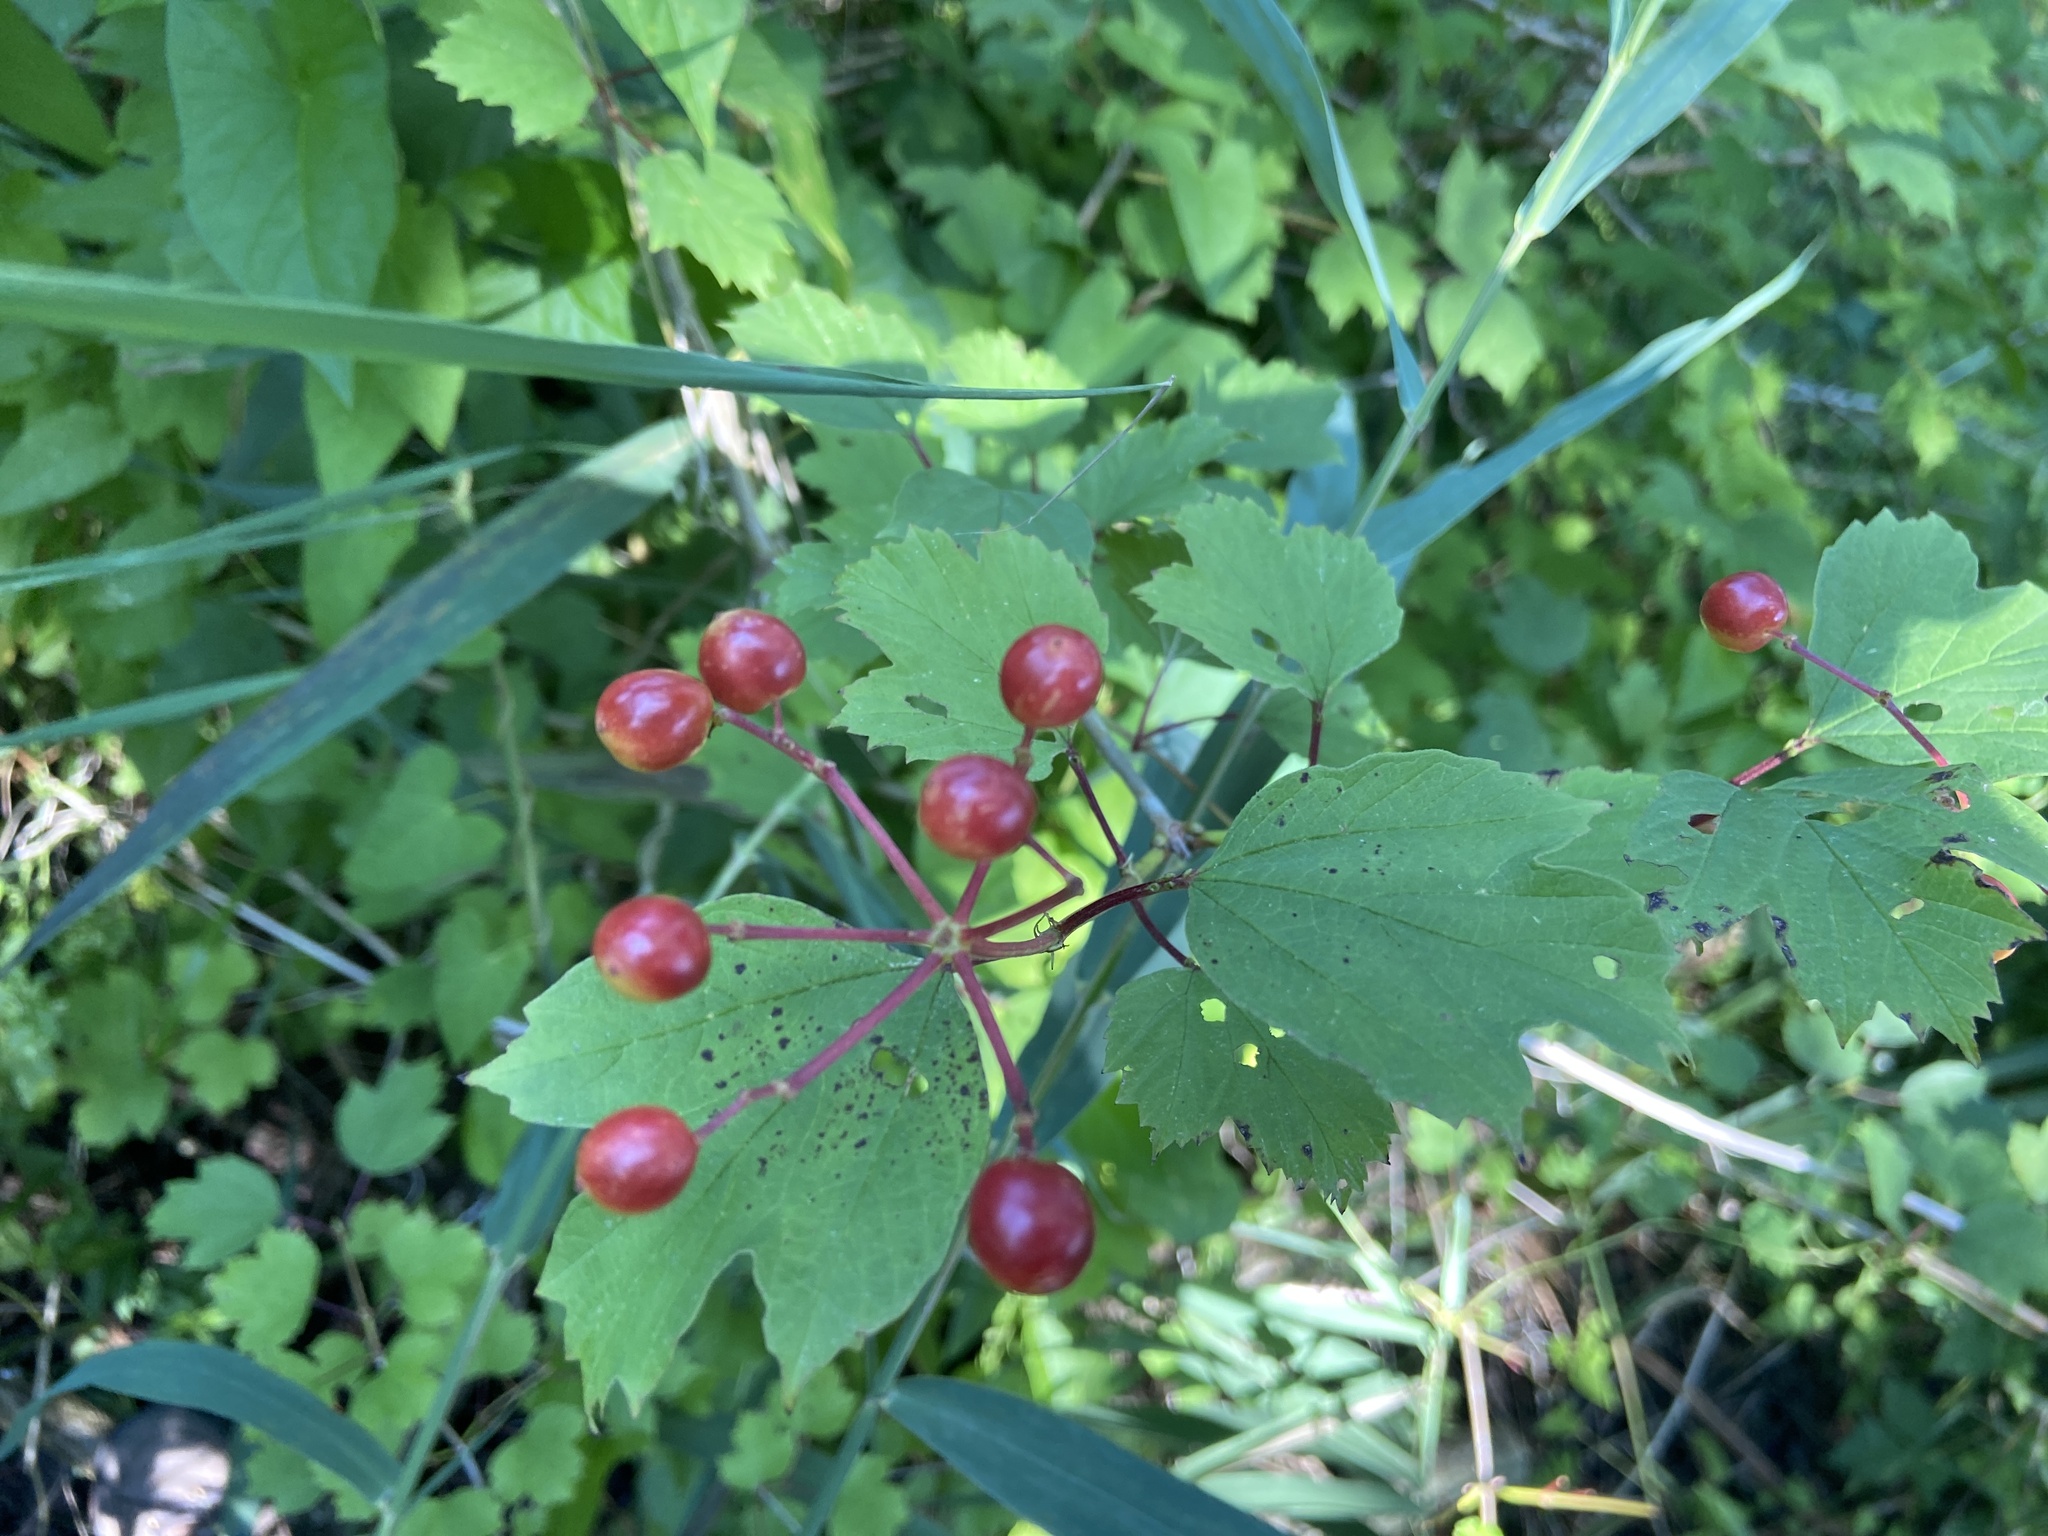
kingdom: Plantae
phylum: Tracheophyta
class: Magnoliopsida
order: Dipsacales
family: Viburnaceae
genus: Viburnum
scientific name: Viburnum opulus
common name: Guelder-rose
